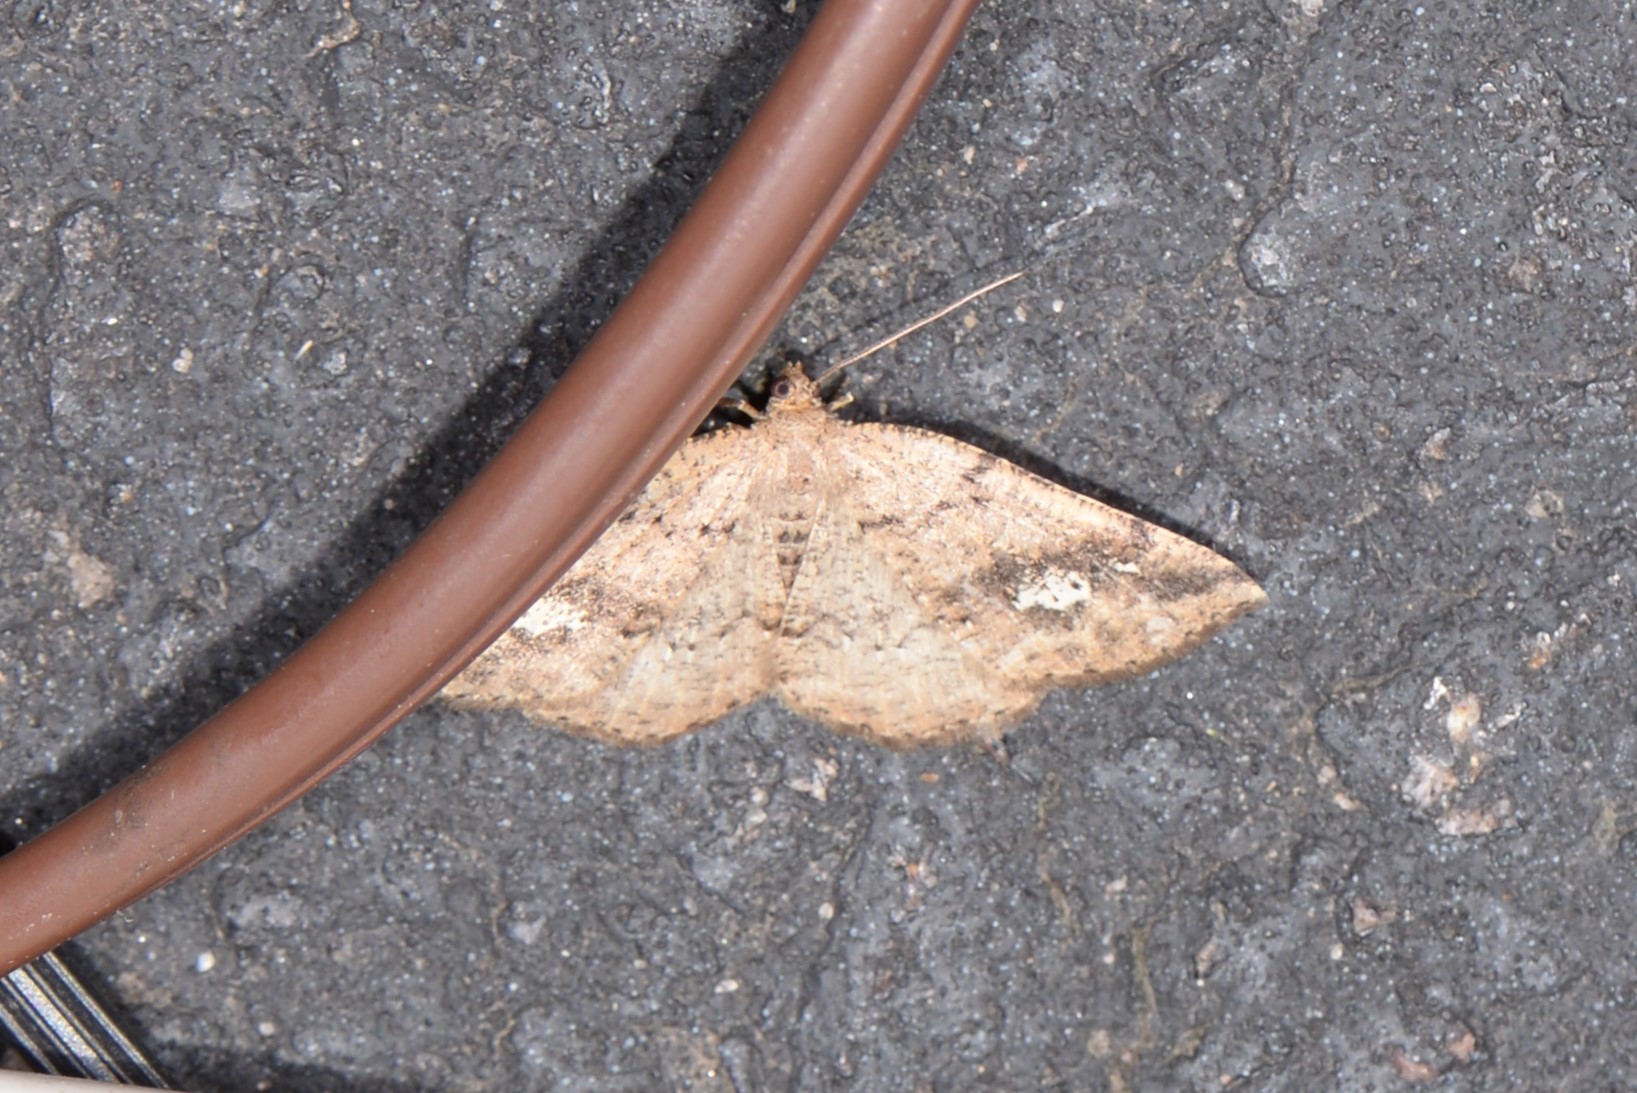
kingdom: Animalia
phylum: Arthropoda
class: Insecta
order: Lepidoptera
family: Geometridae
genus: Homochlodes
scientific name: Homochlodes fritillaria
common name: Pale homochlodes
